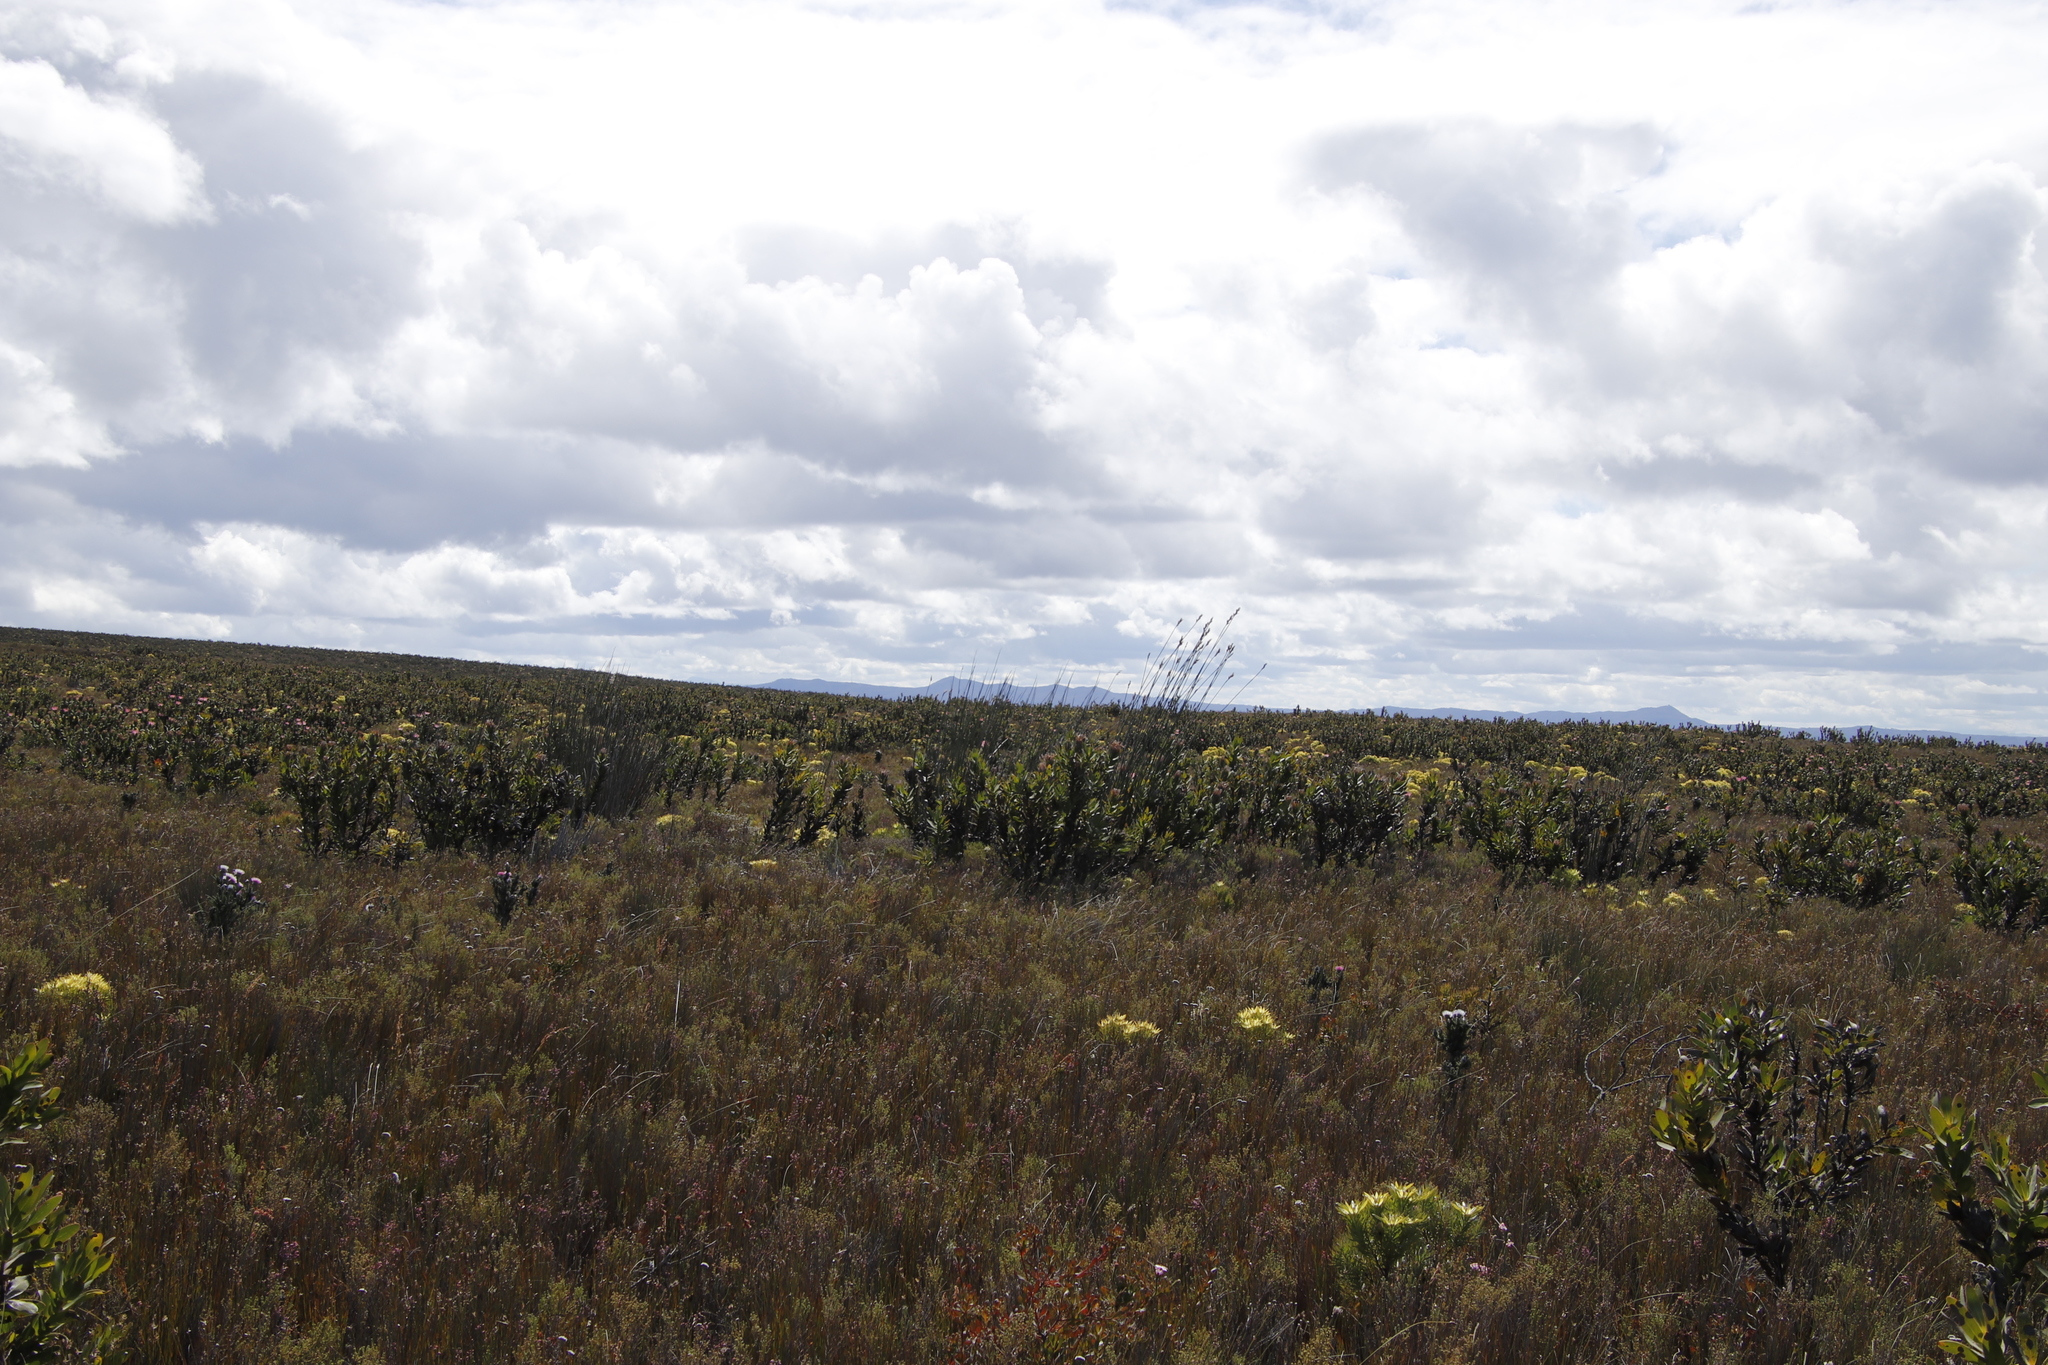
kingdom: Plantae
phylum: Tracheophyta
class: Magnoliopsida
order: Proteales
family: Proteaceae
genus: Protea
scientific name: Protea compacta
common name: Bot river protea
